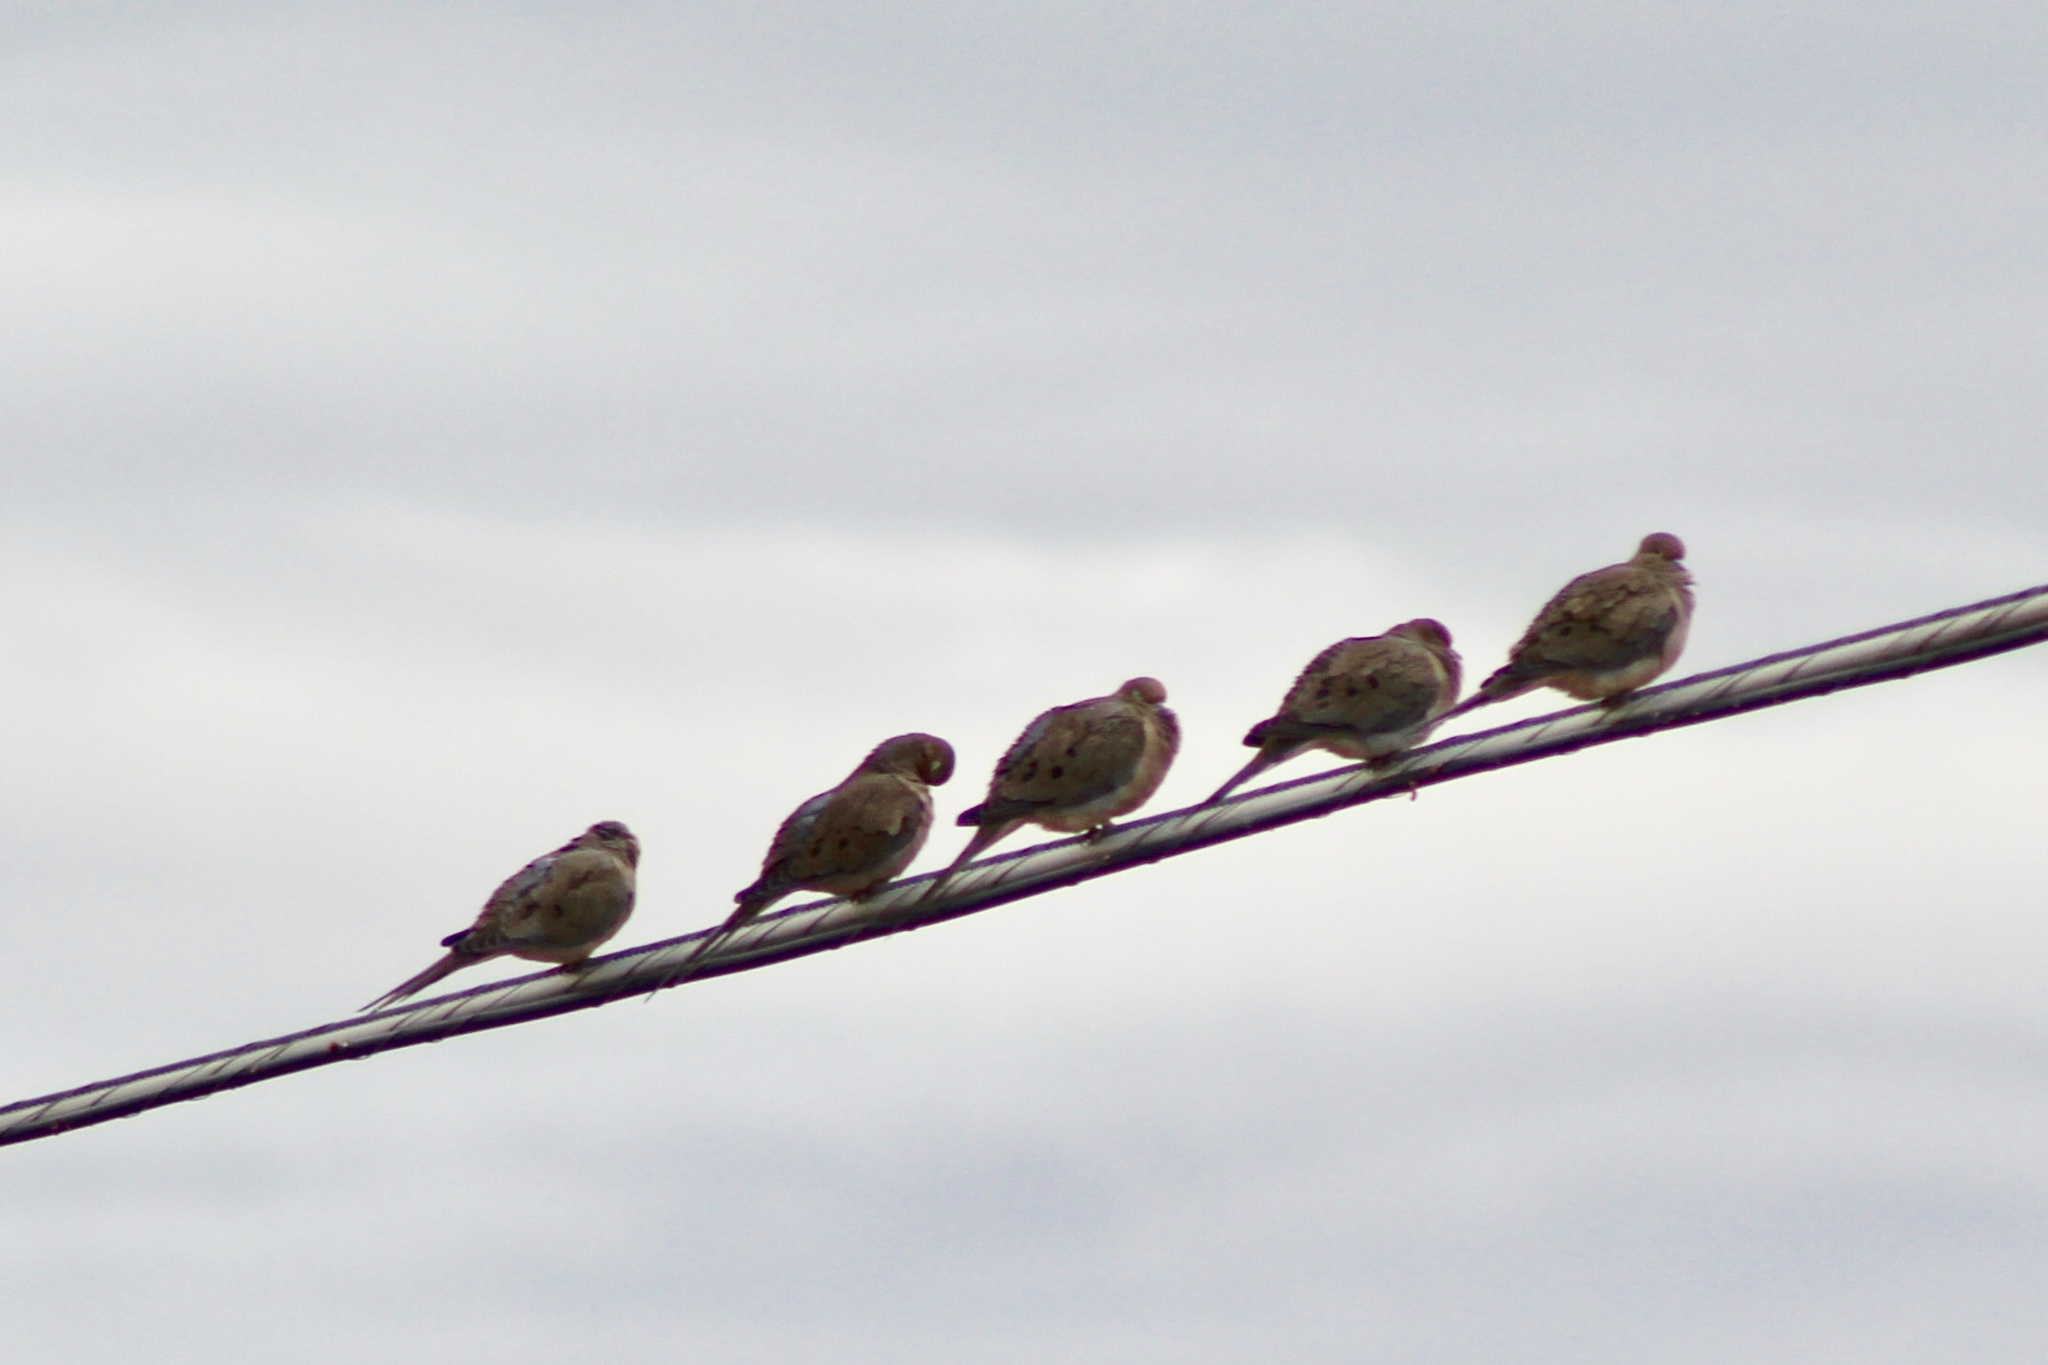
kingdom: Animalia
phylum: Chordata
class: Aves
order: Columbiformes
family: Columbidae
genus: Zenaida
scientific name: Zenaida macroura
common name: Mourning dove
